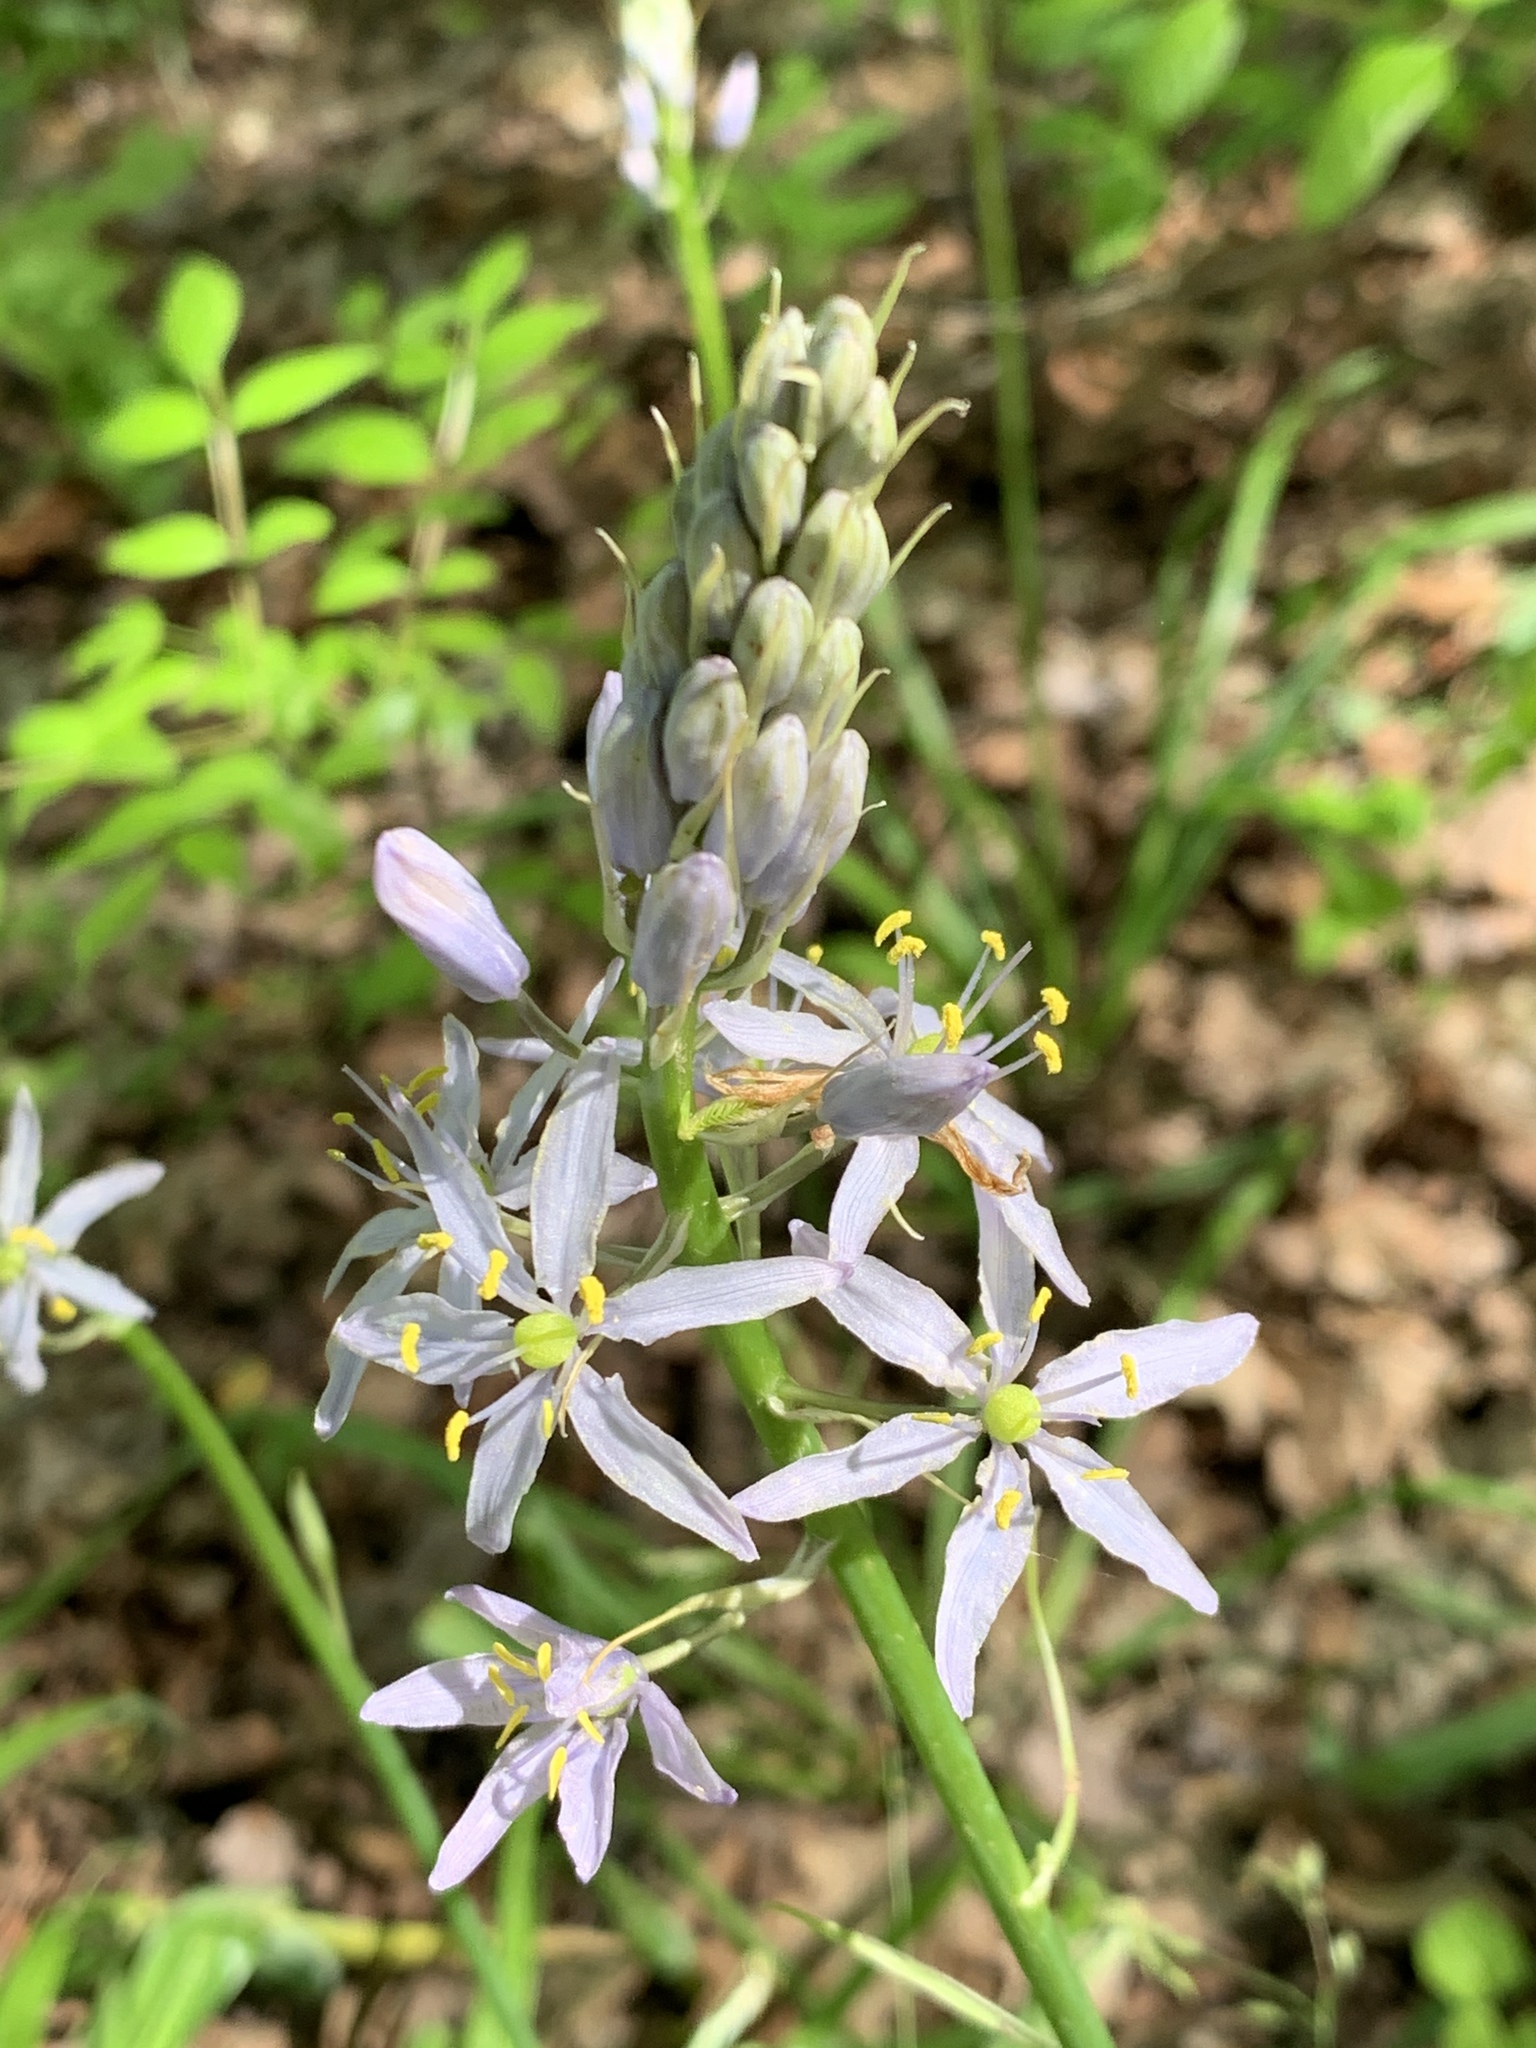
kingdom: Plantae
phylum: Tracheophyta
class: Liliopsida
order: Asparagales
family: Asparagaceae
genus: Camassia
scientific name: Camassia scilloides
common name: Wild hyacinth
